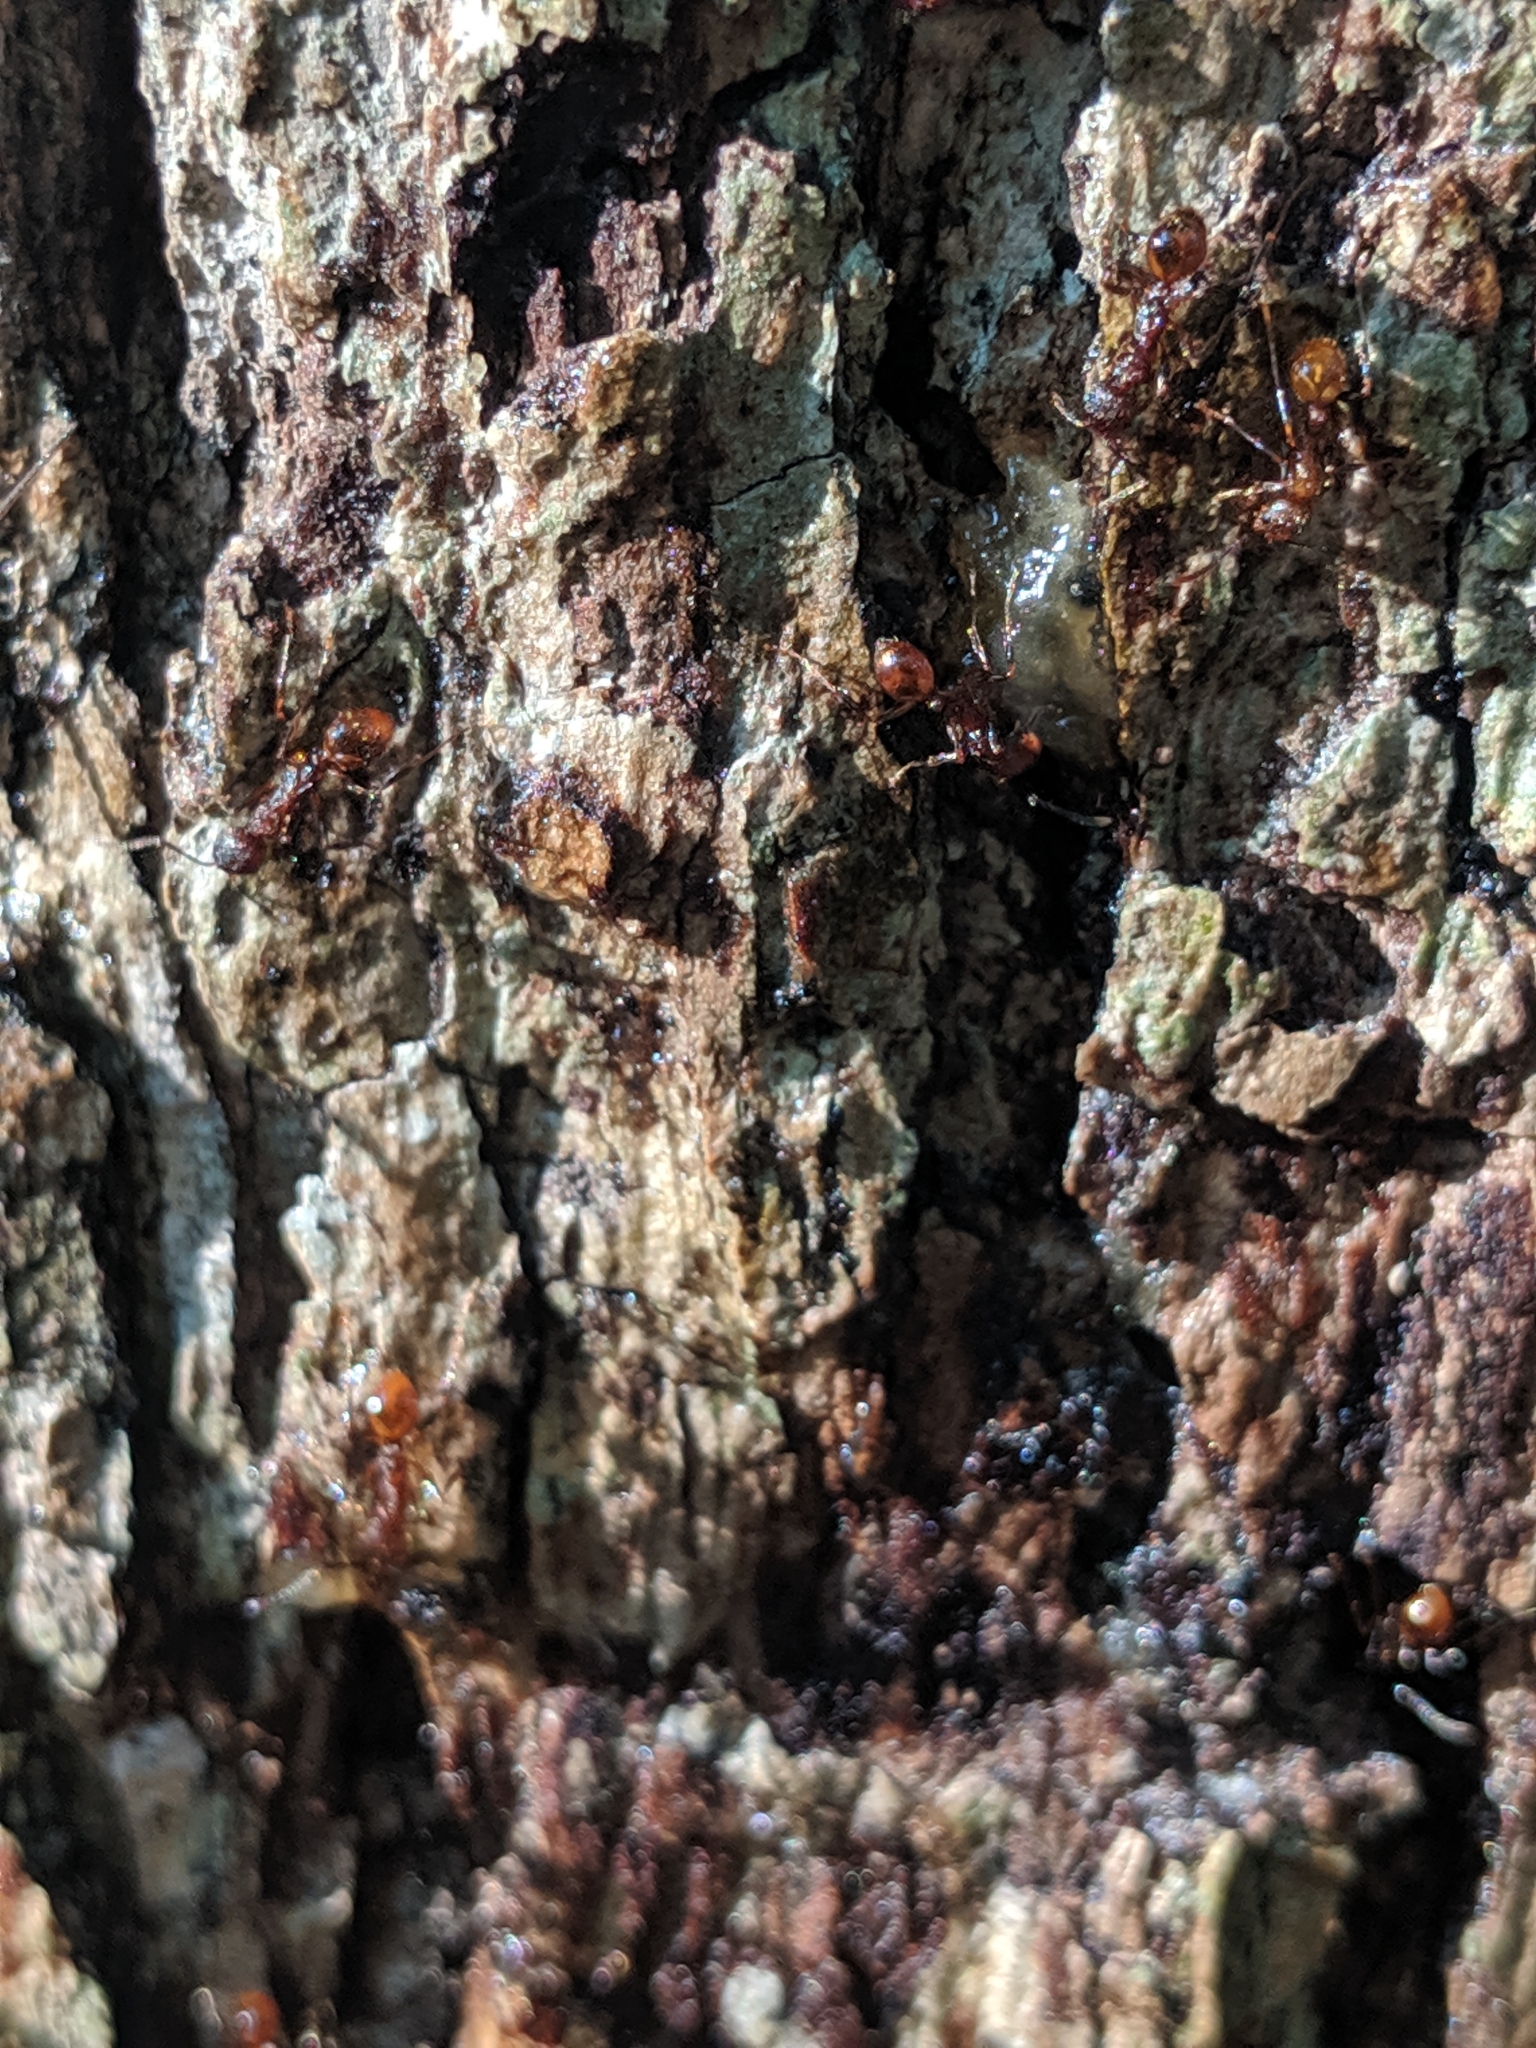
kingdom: Animalia
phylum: Arthropoda
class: Insecta
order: Hymenoptera
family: Formicidae
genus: Aphaenogaster
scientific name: Aphaenogaster mariae
